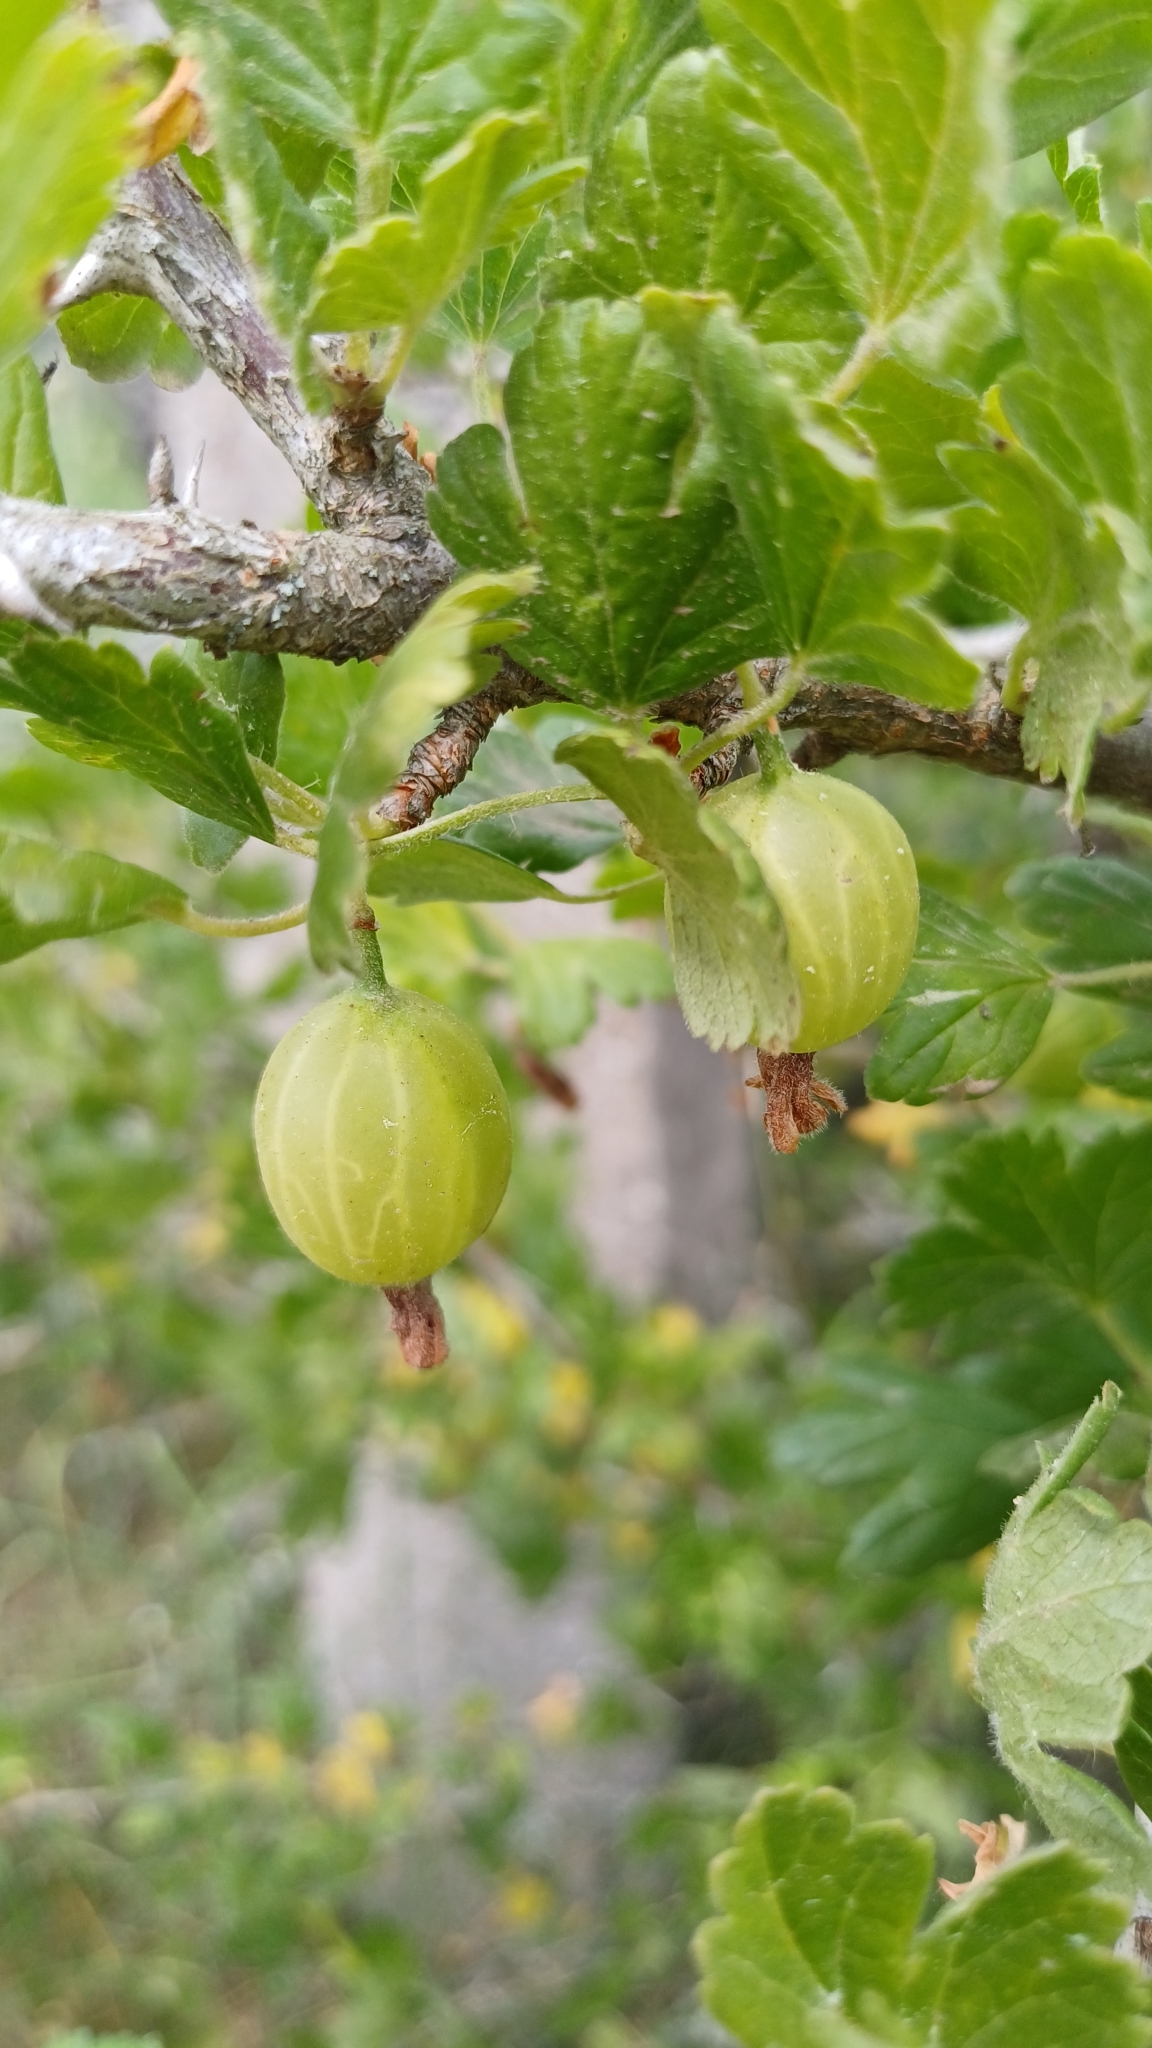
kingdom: Plantae
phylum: Tracheophyta
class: Magnoliopsida
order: Saxifragales
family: Grossulariaceae
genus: Ribes
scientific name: Ribes uva-crispa
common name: Gooseberry
